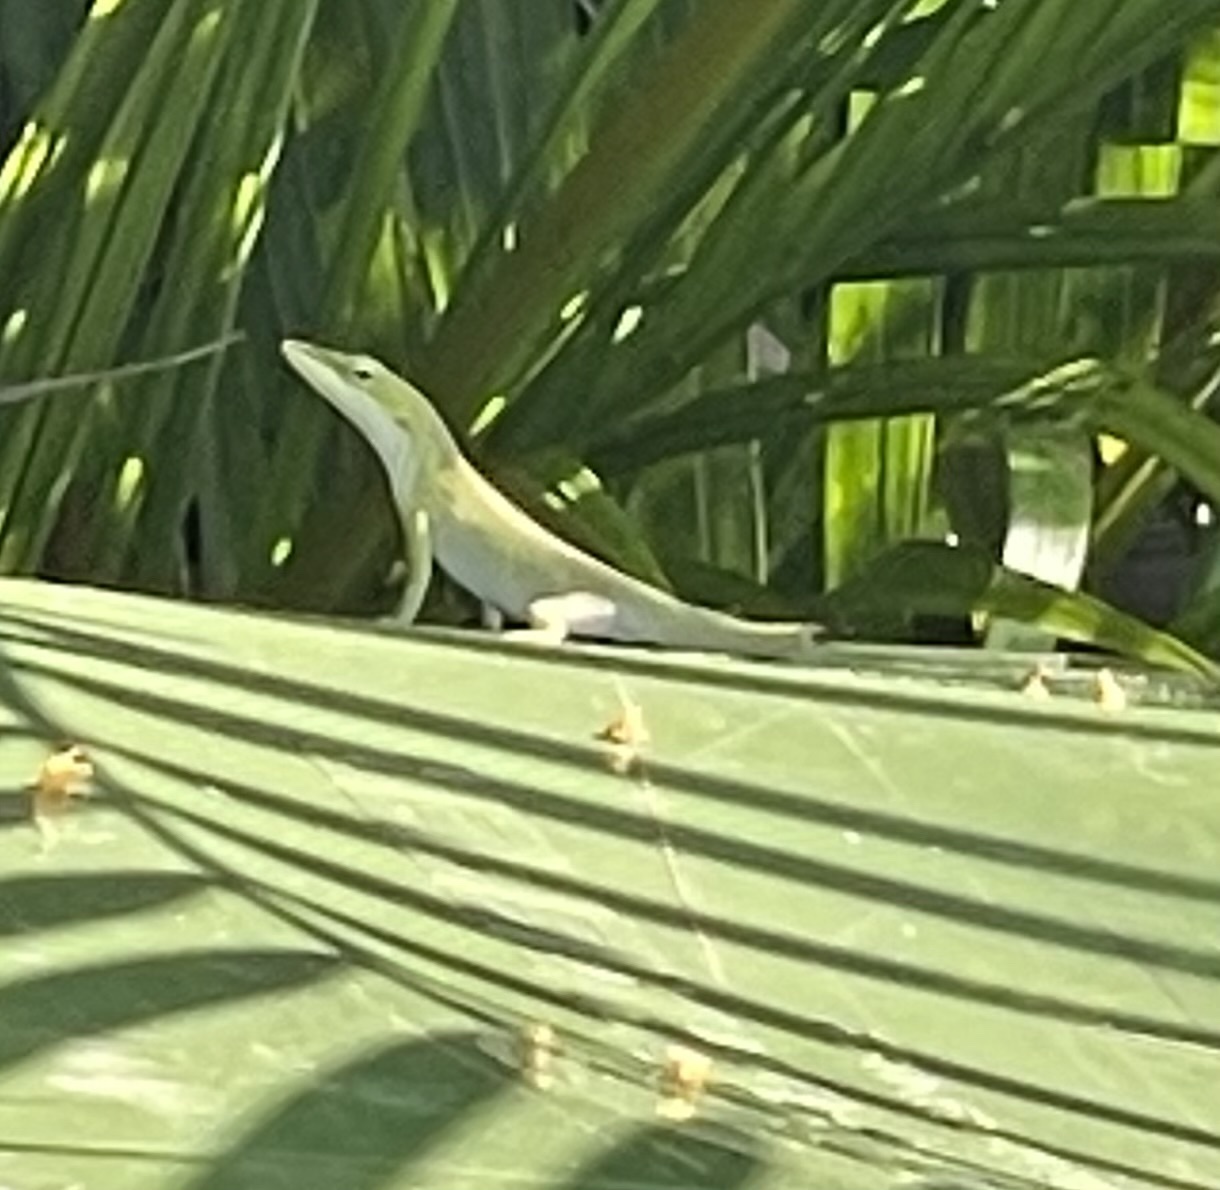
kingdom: Animalia
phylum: Chordata
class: Squamata
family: Dactyloidae
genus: Anolis
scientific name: Anolis carolinensis
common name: Green anole
